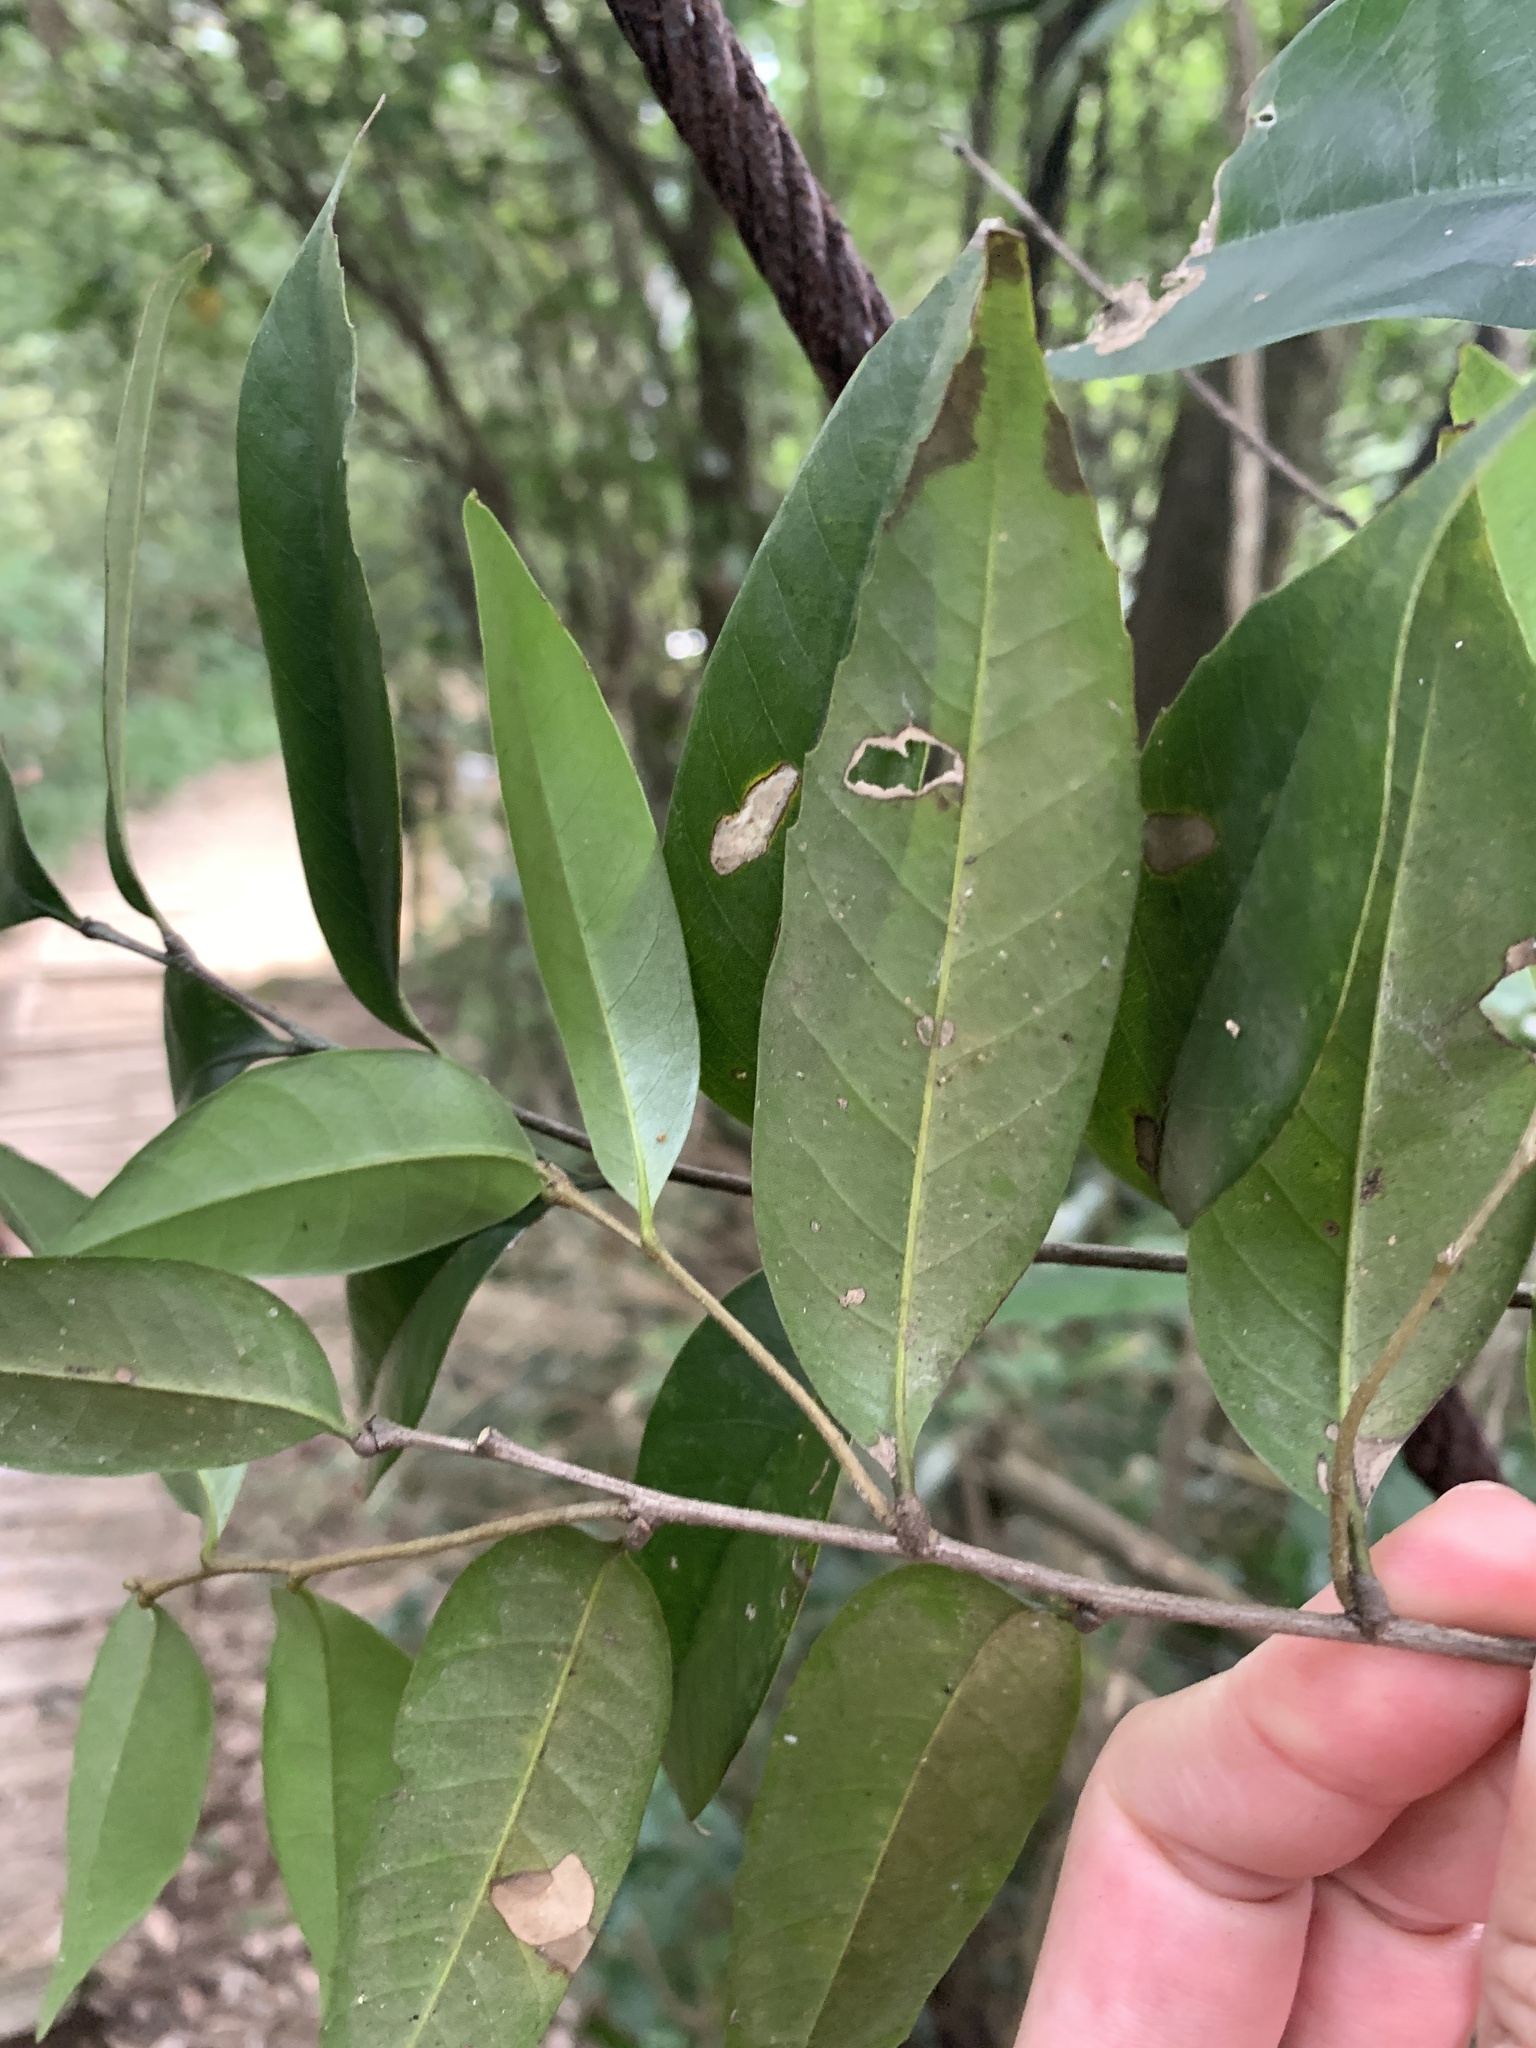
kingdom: Plantae
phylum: Tracheophyta
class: Magnoliopsida
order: Fagales
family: Fagaceae
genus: Lithocarpus
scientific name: Lithocarpus uraianus
